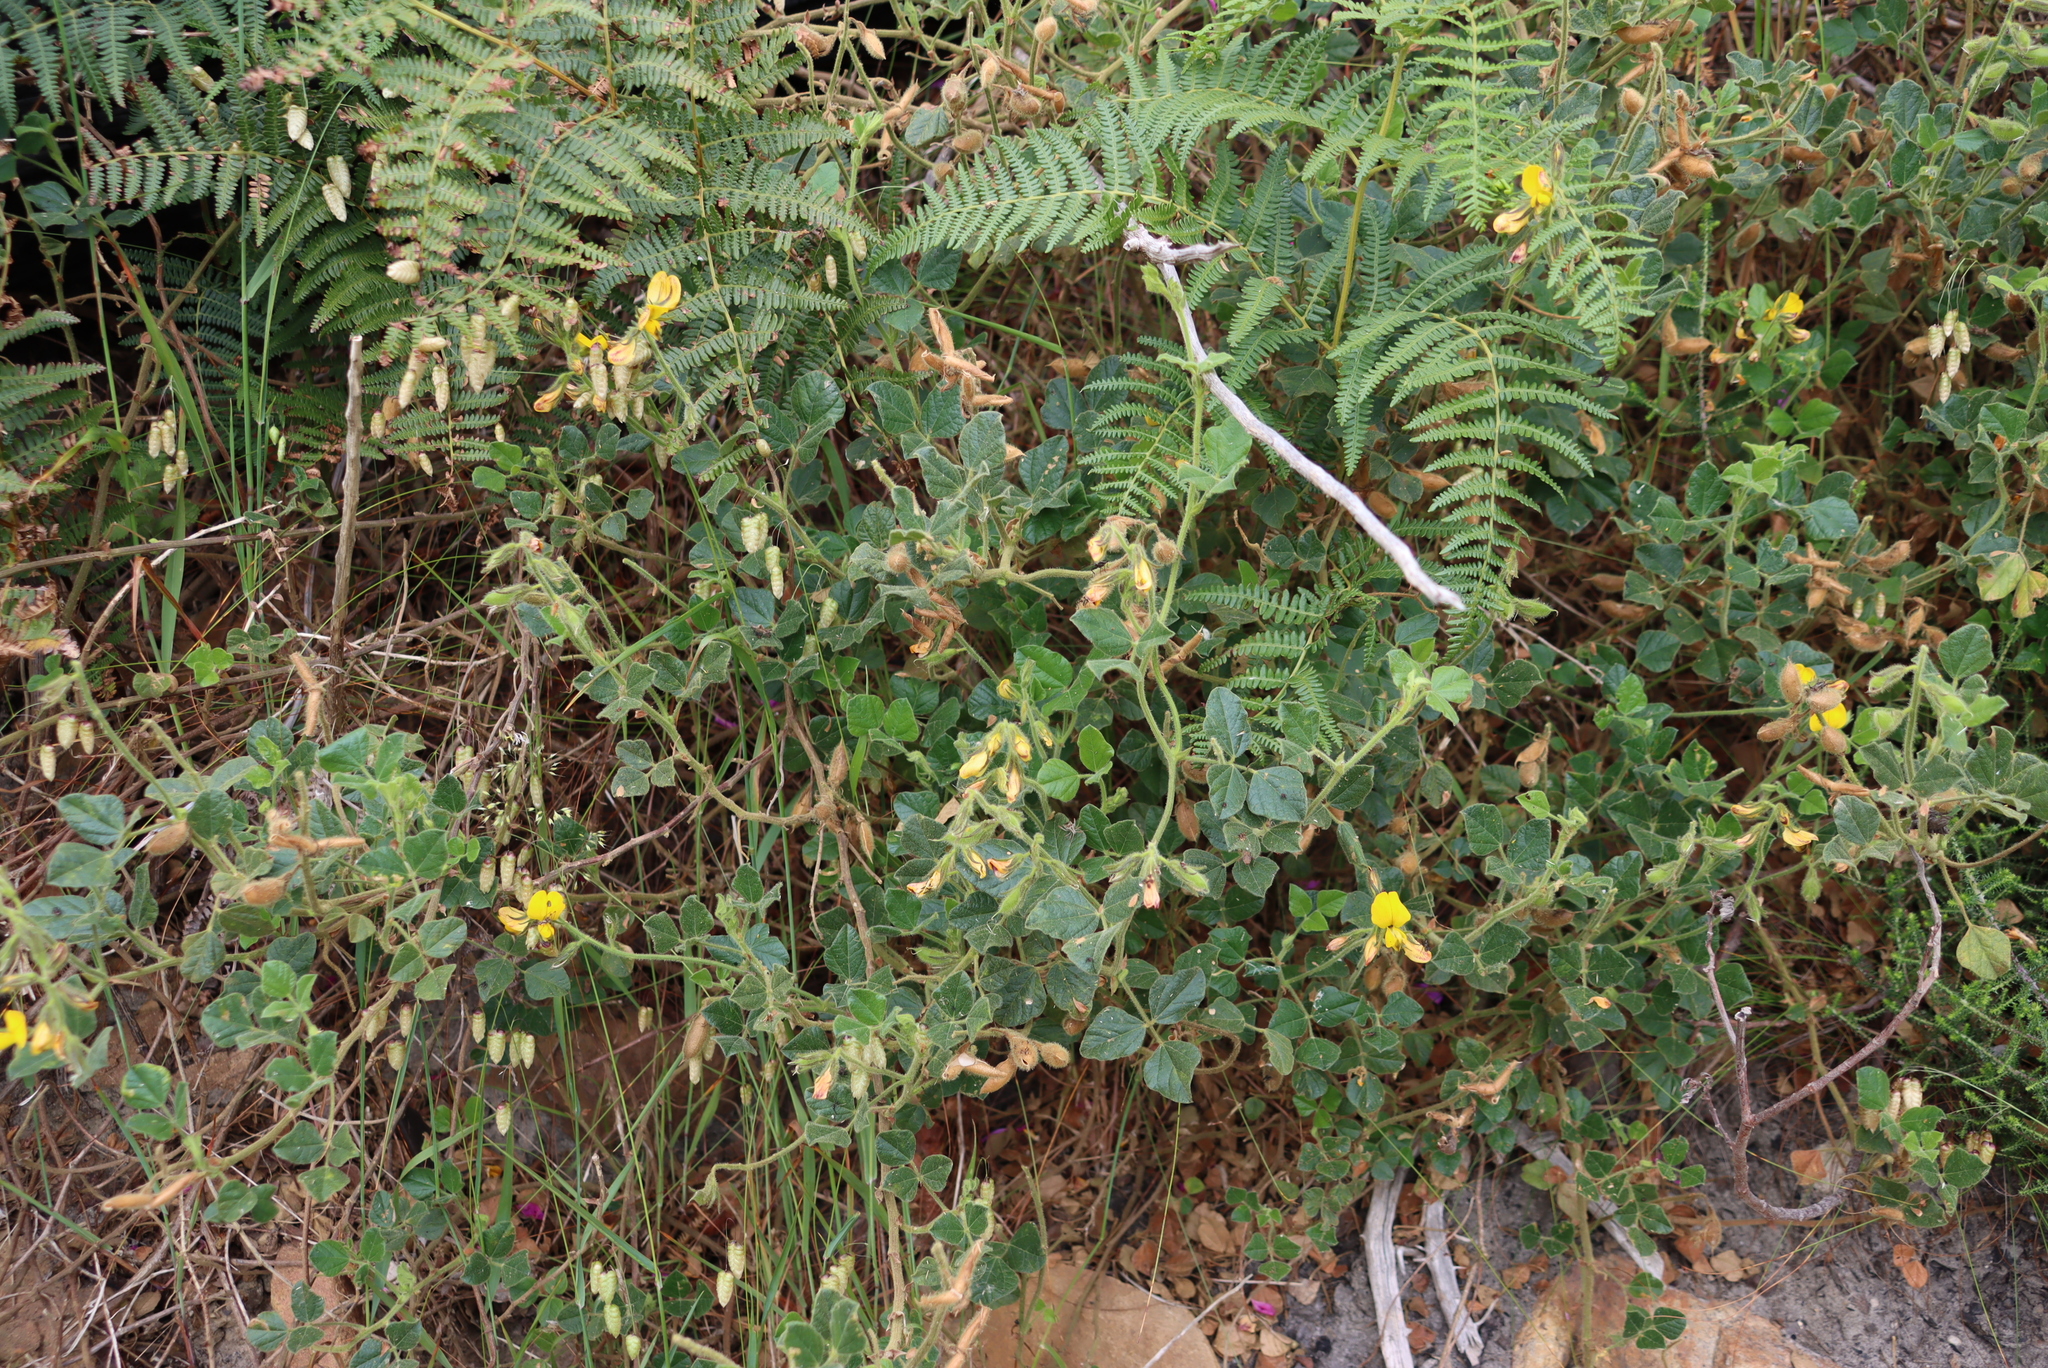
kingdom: Plantae
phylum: Tracheophyta
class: Magnoliopsida
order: Fabales
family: Fabaceae
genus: Bolusafra
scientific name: Bolusafra bituminosa
